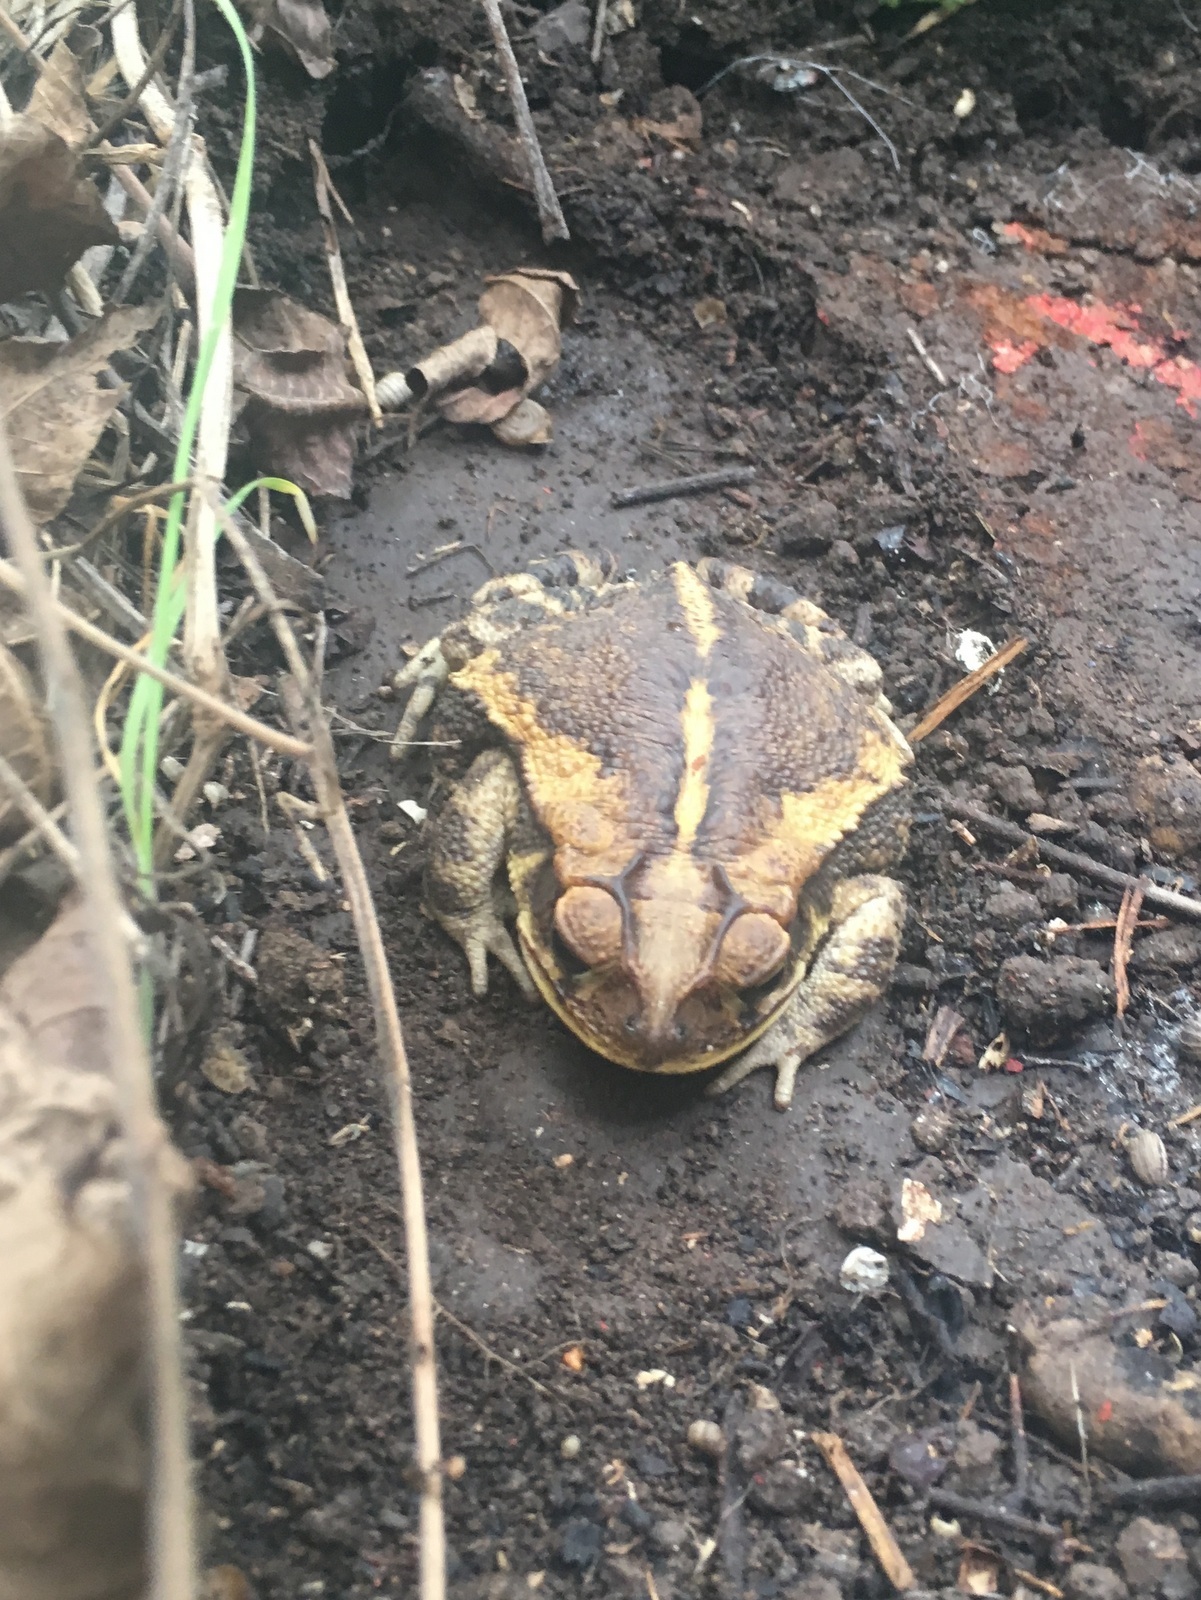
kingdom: Animalia
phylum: Chordata
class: Amphibia
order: Anura
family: Bufonidae
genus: Incilius
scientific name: Incilius nebulifer
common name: Gulf coast toad
